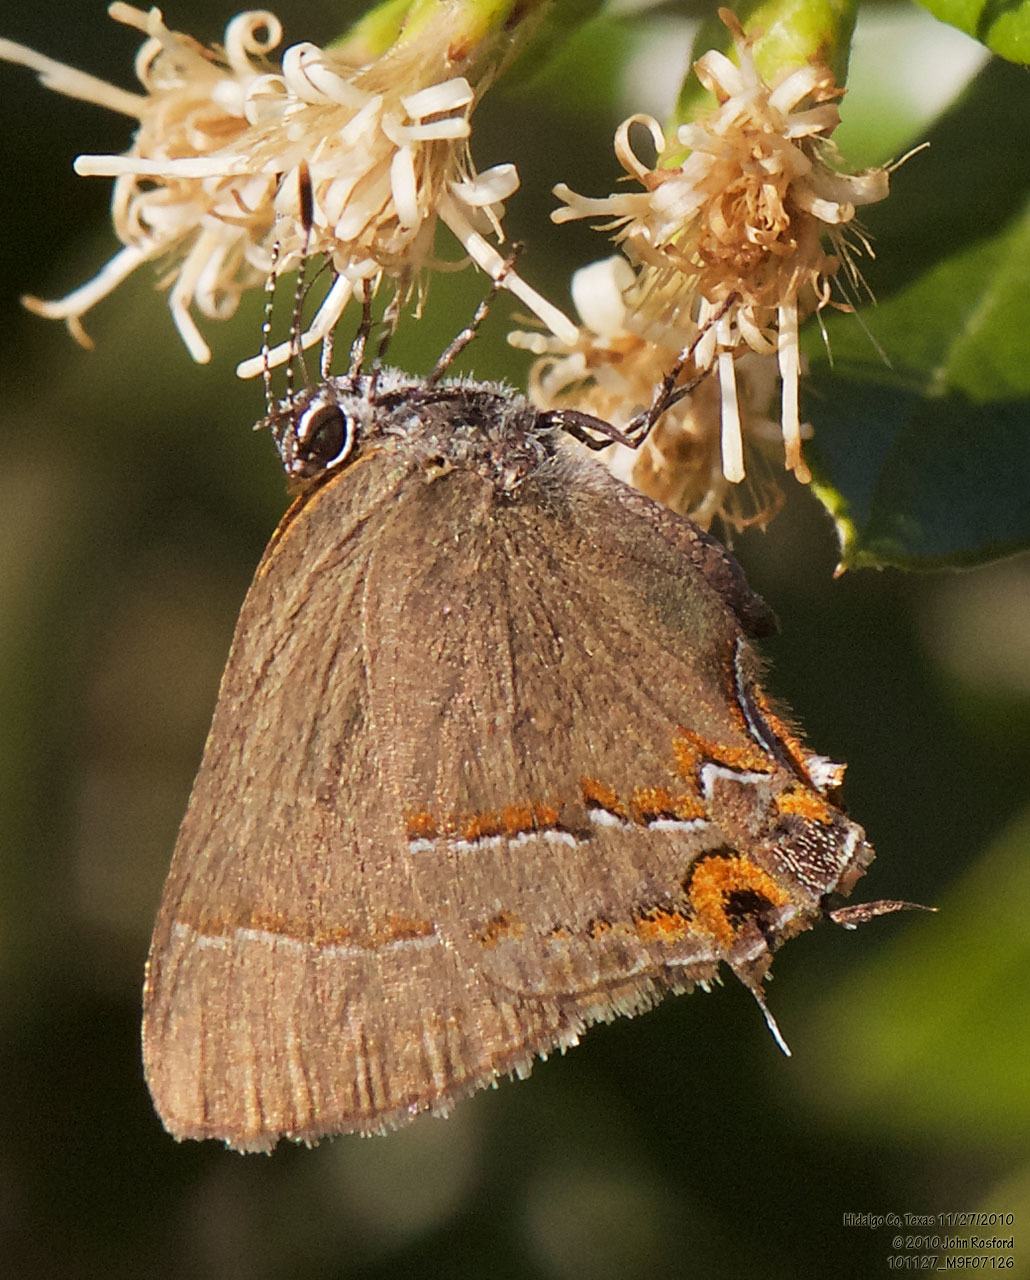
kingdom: Animalia
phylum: Arthropoda
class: Insecta
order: Lepidoptera
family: Lycaenidae
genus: Electrostrymon
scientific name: Electrostrymon
